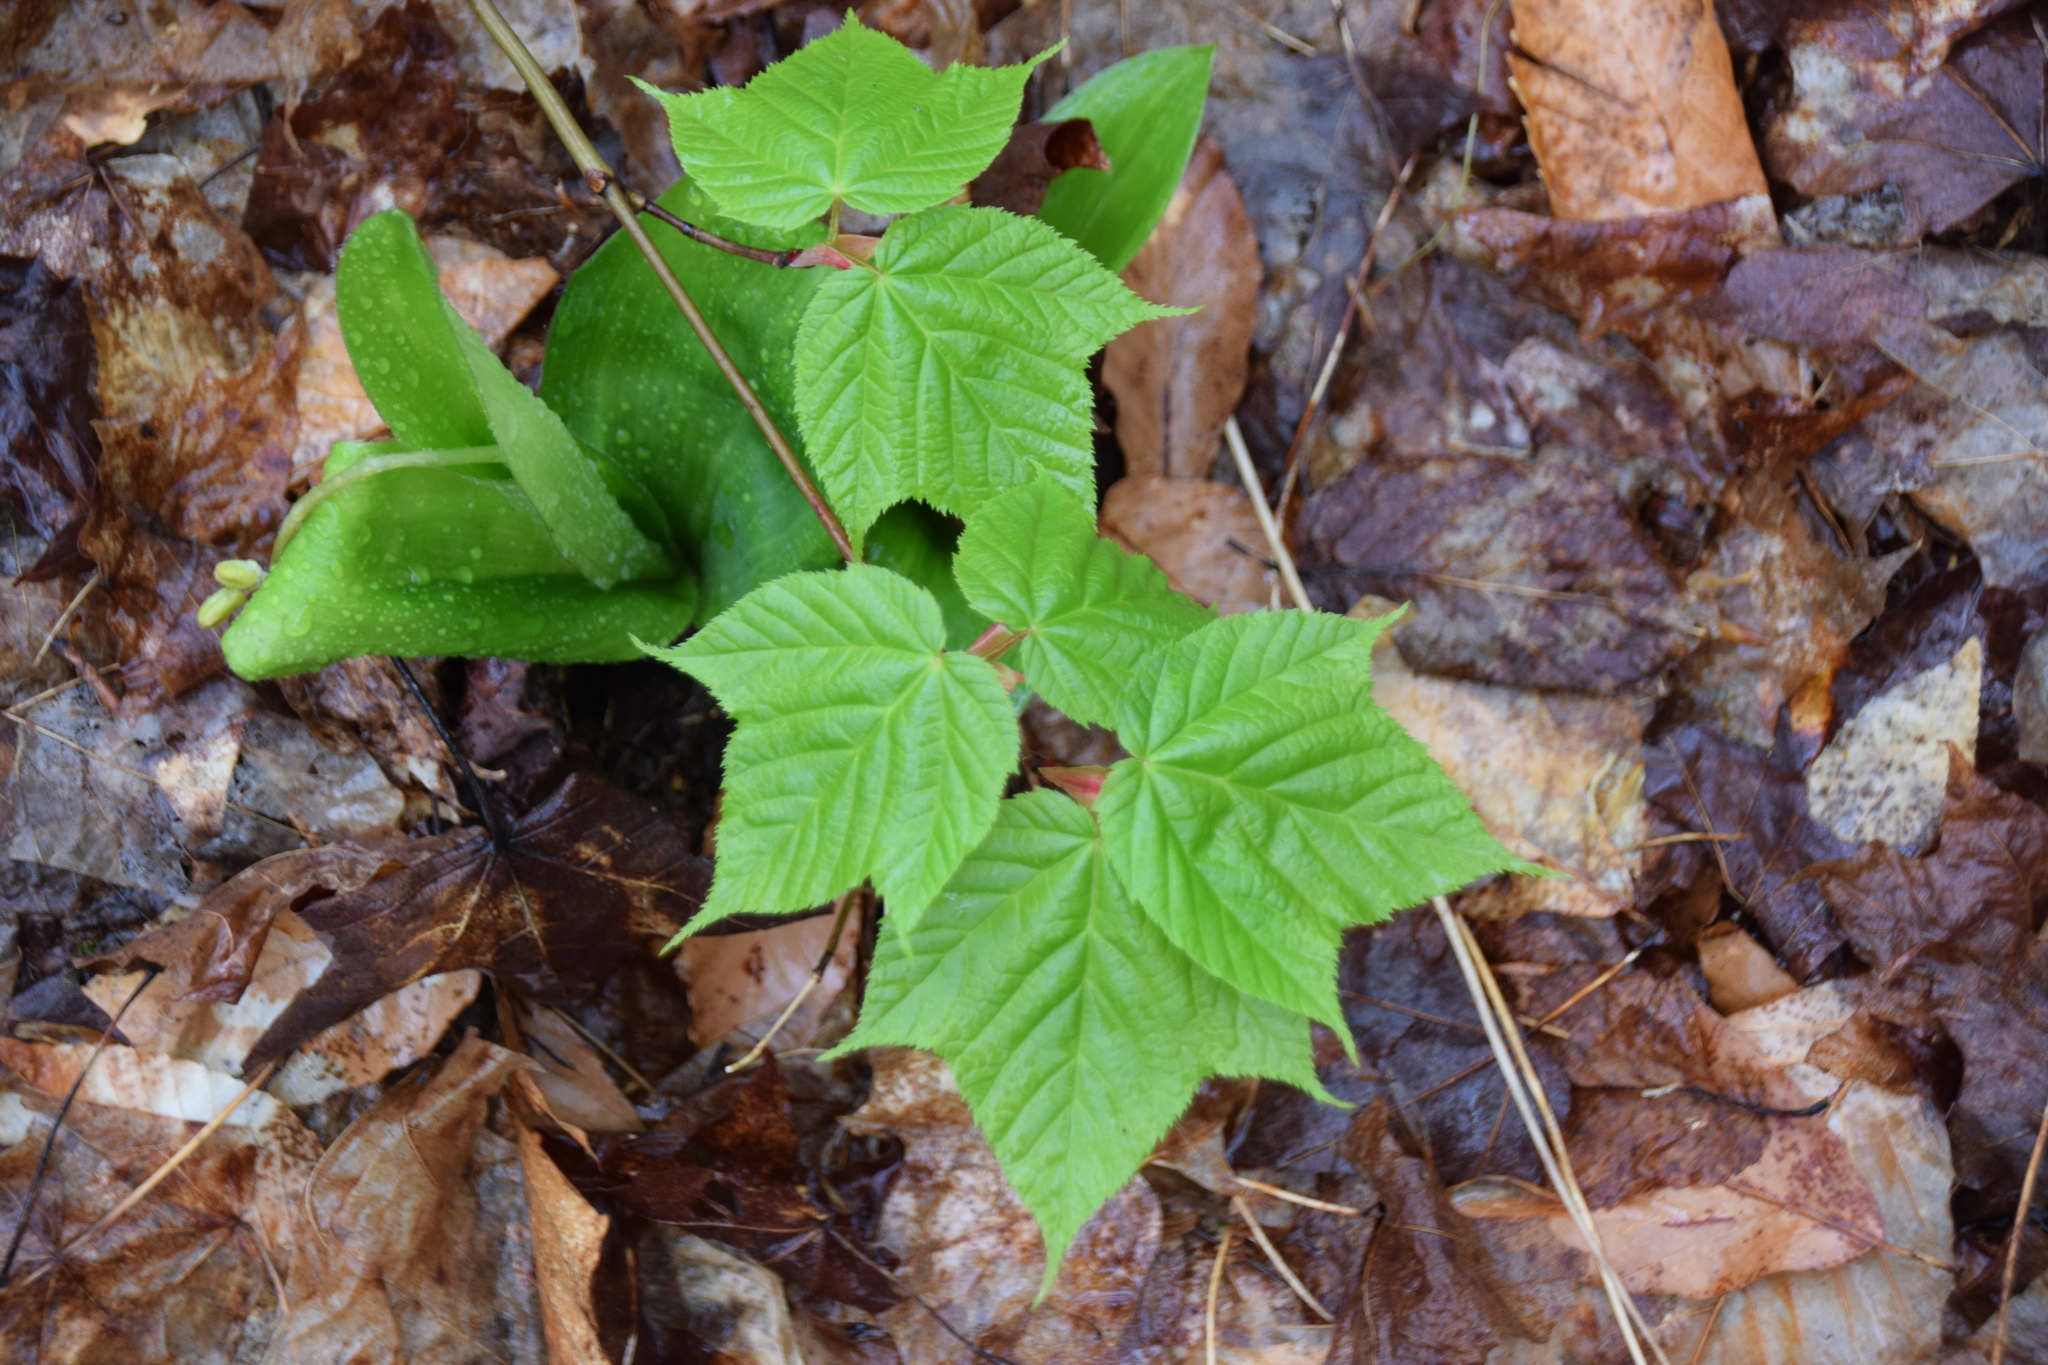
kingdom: Plantae
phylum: Tracheophyta
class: Magnoliopsida
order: Sapindales
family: Sapindaceae
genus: Acer
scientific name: Acer pensylvanicum
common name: Moosewood
